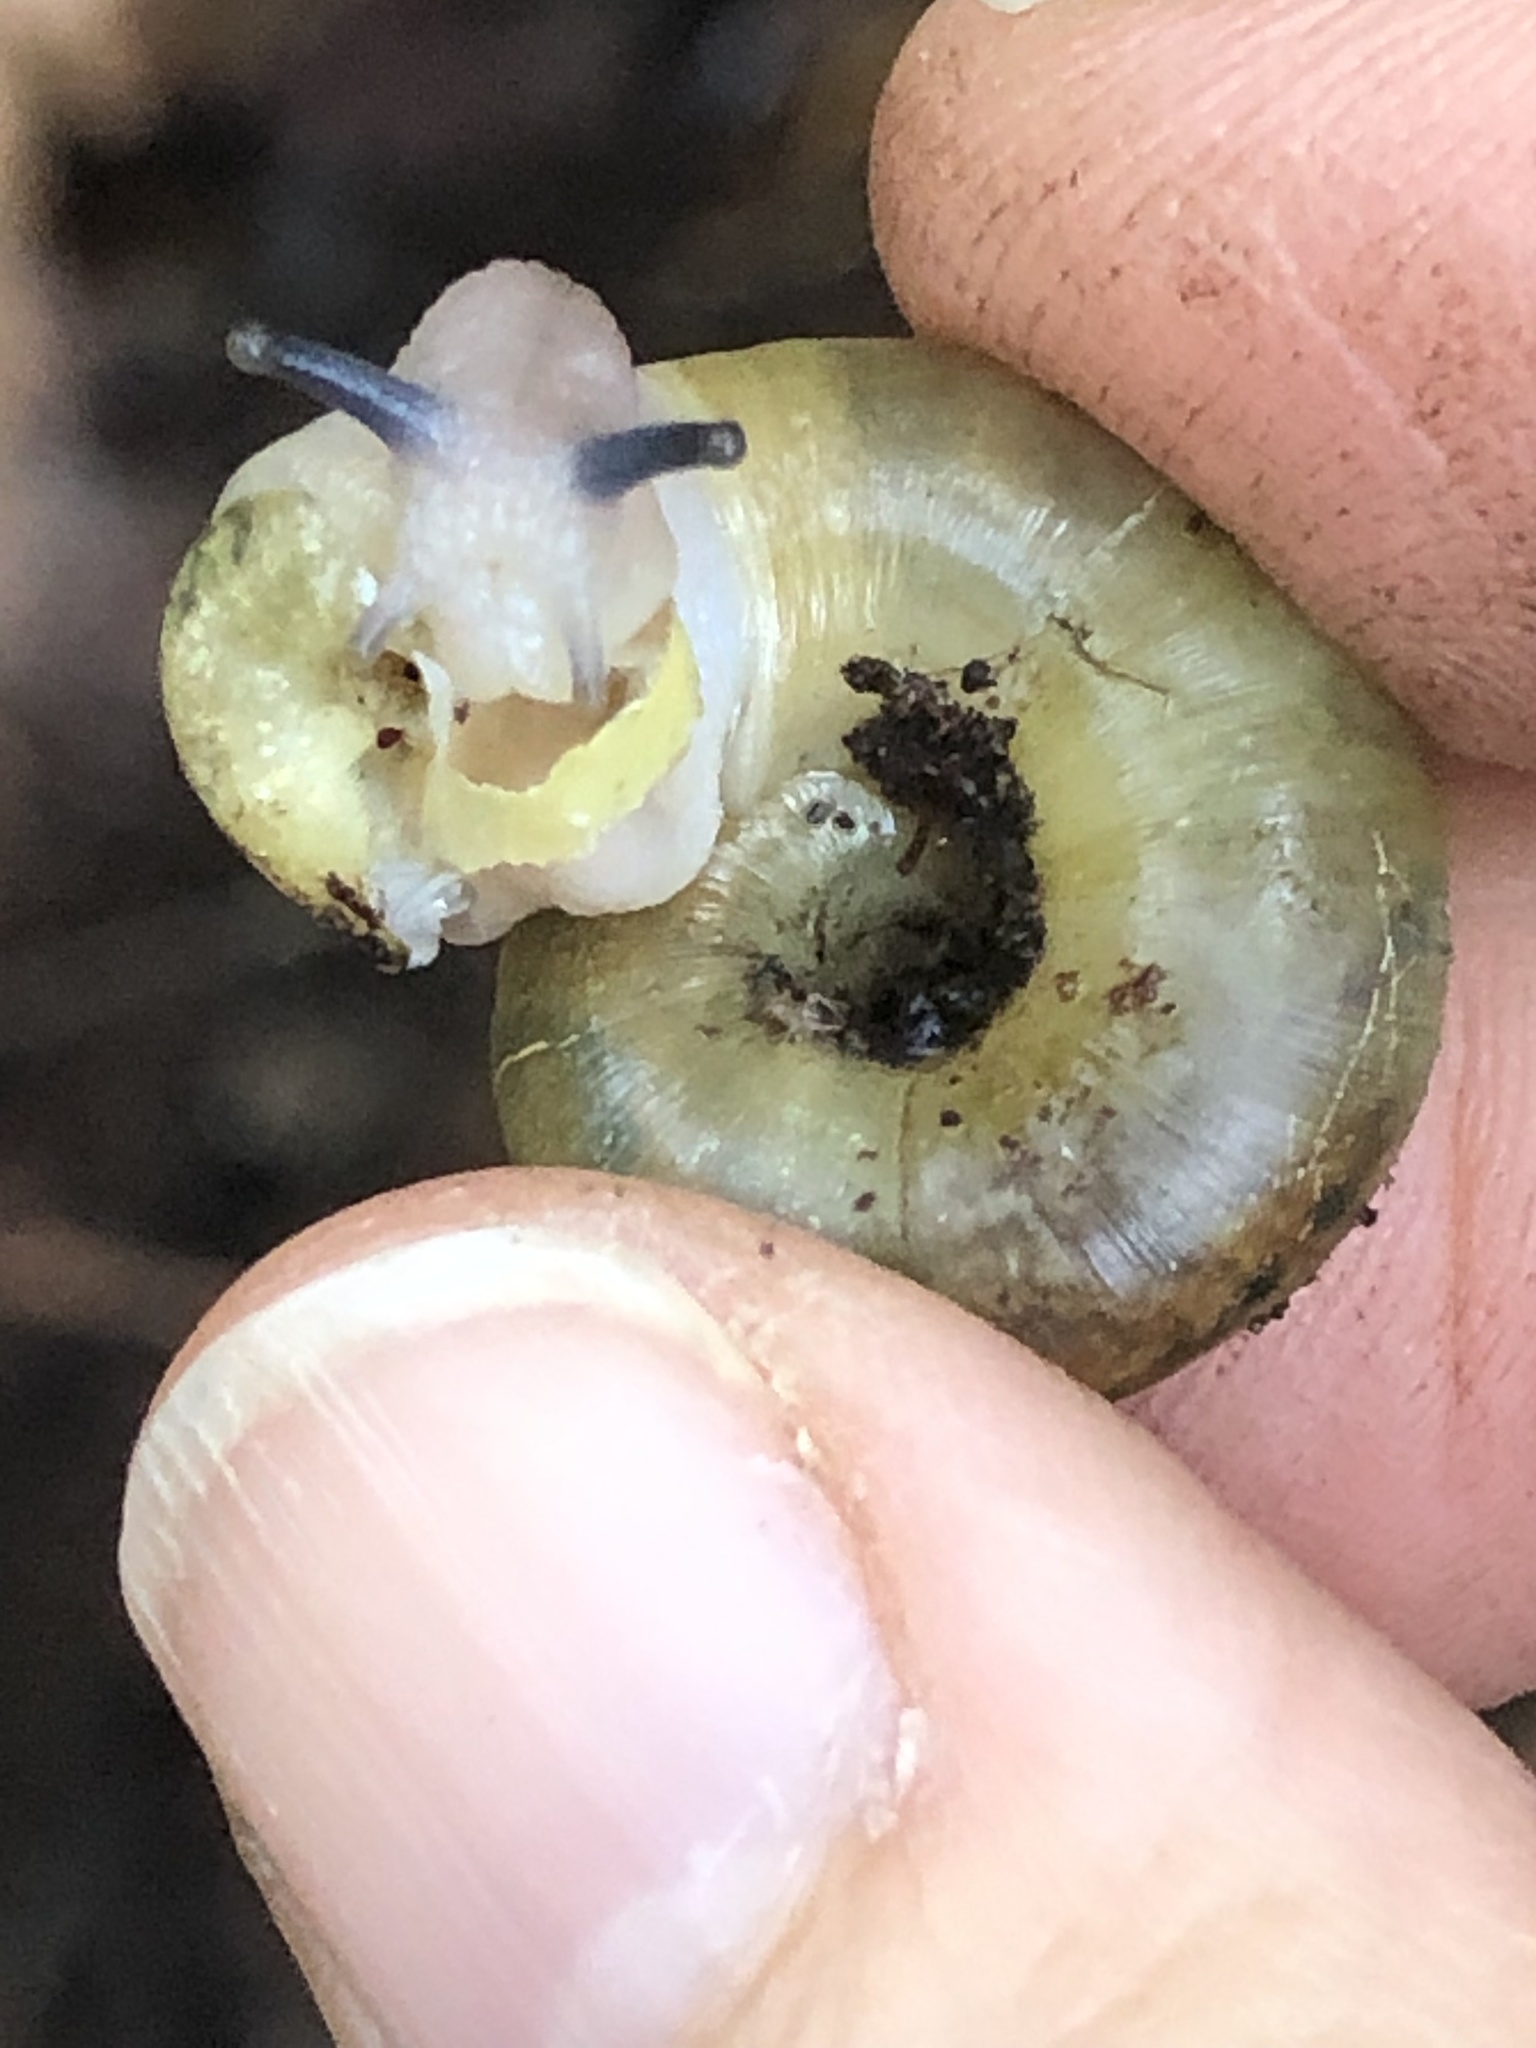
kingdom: Animalia
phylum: Mollusca
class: Gastropoda
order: Stylommatophora
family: Haplotrematidae
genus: Haplotrema
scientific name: Haplotrema minimum
